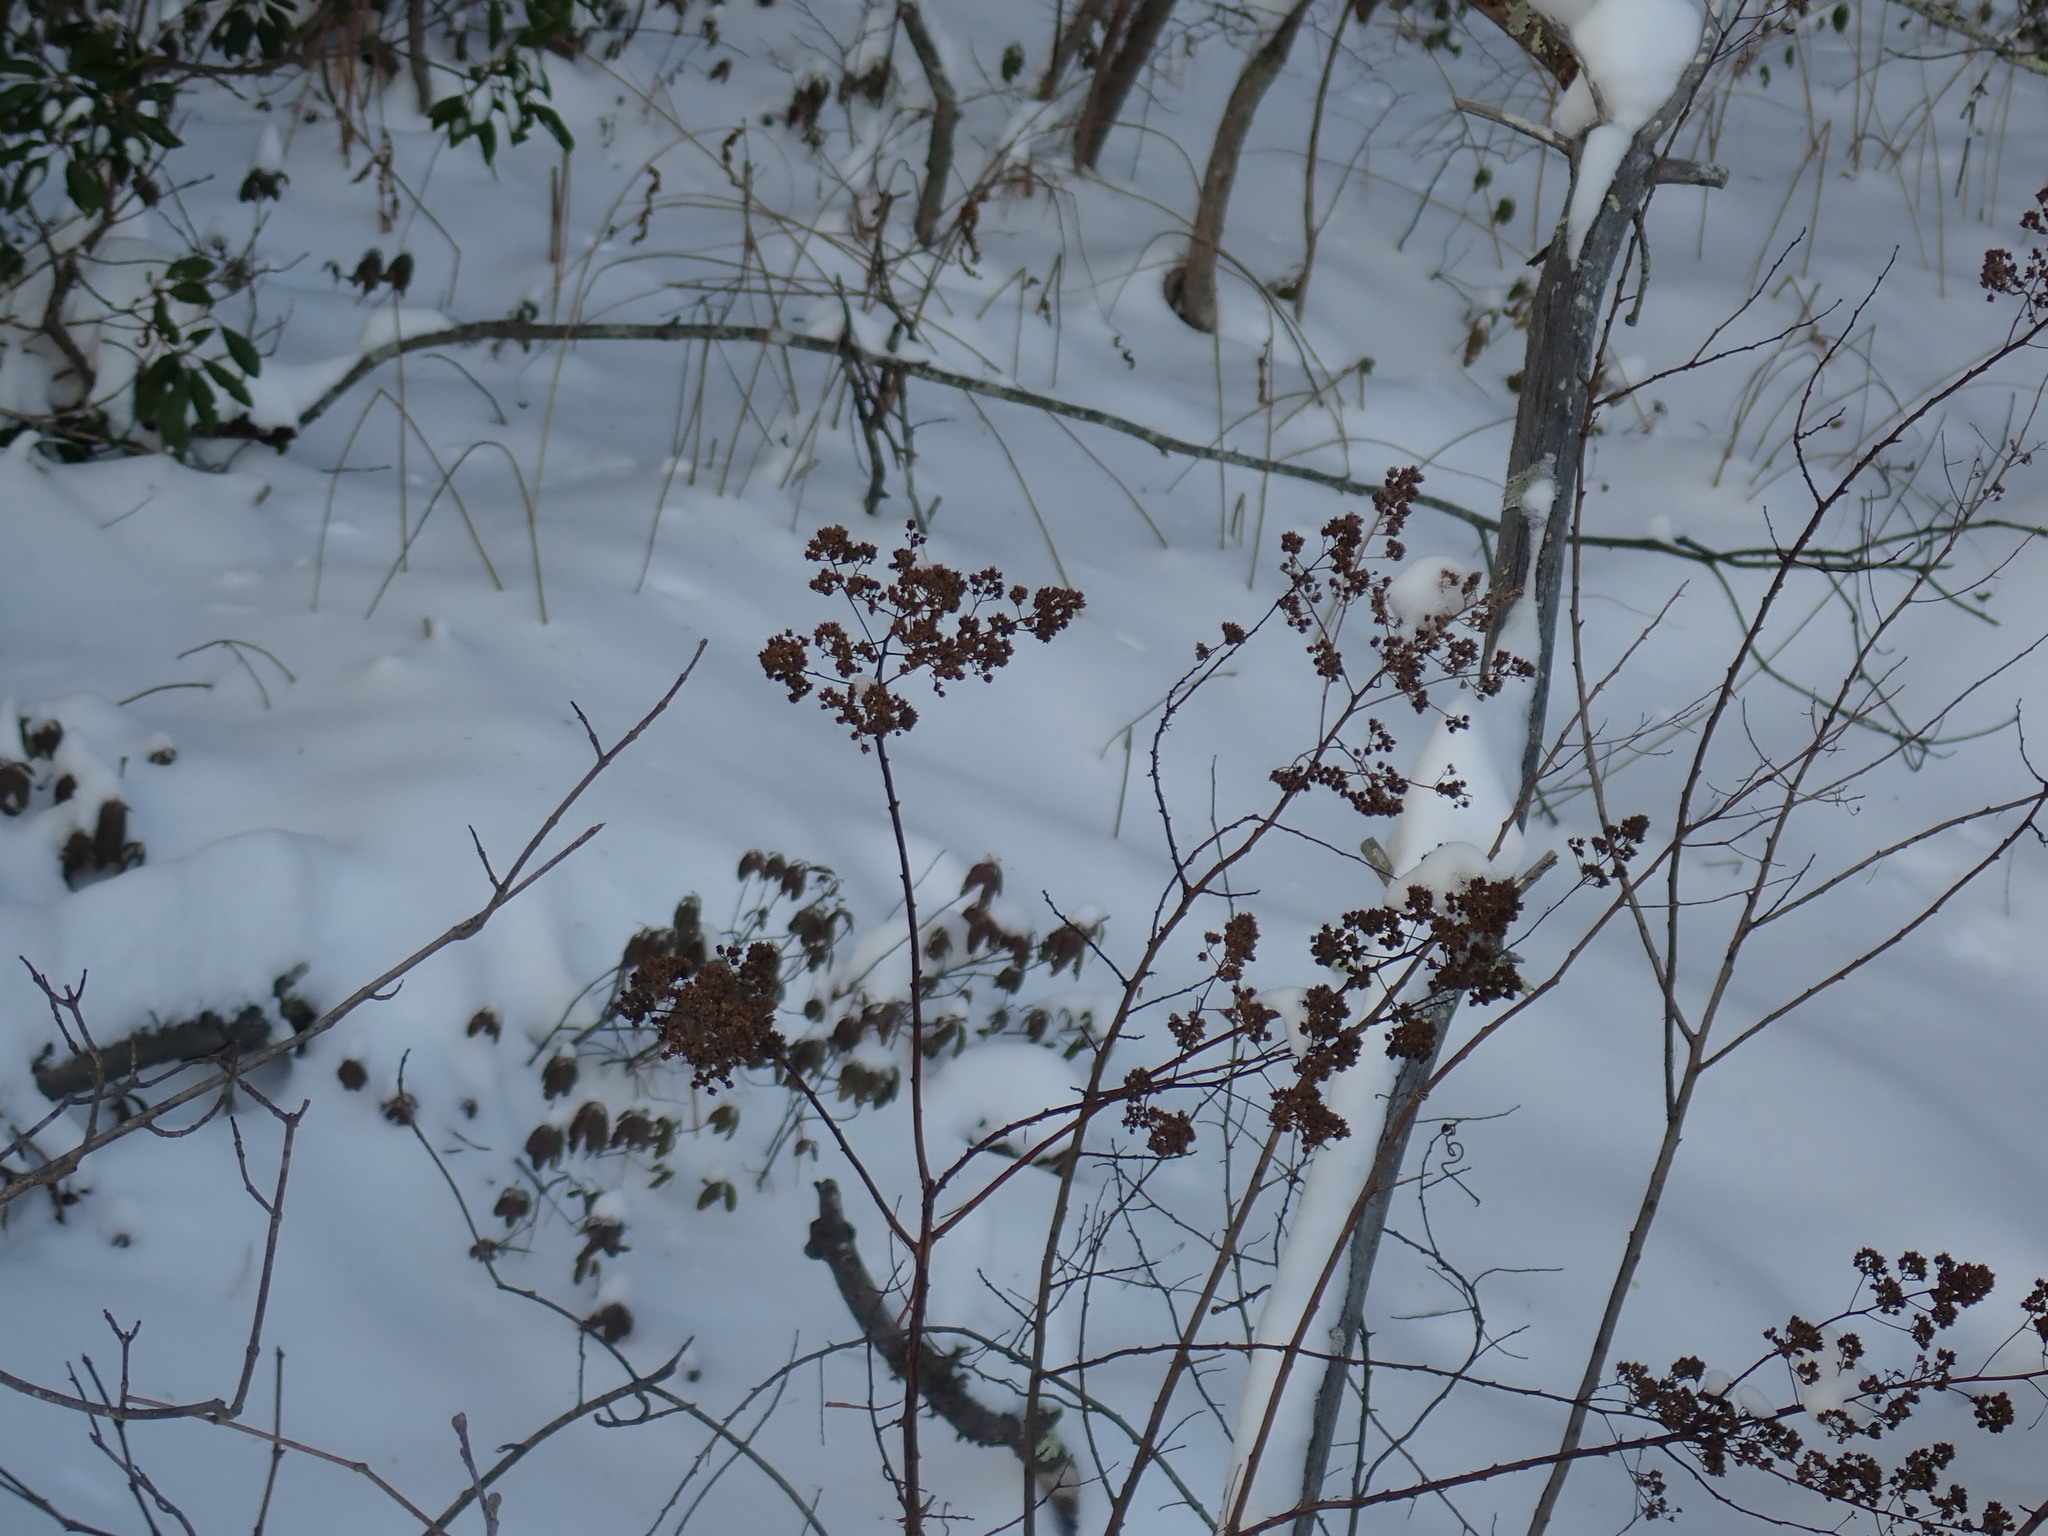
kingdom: Plantae
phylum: Tracheophyta
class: Magnoliopsida
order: Rosales
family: Rosaceae
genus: Spiraea
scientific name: Spiraea alba
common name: Pale bridewort
